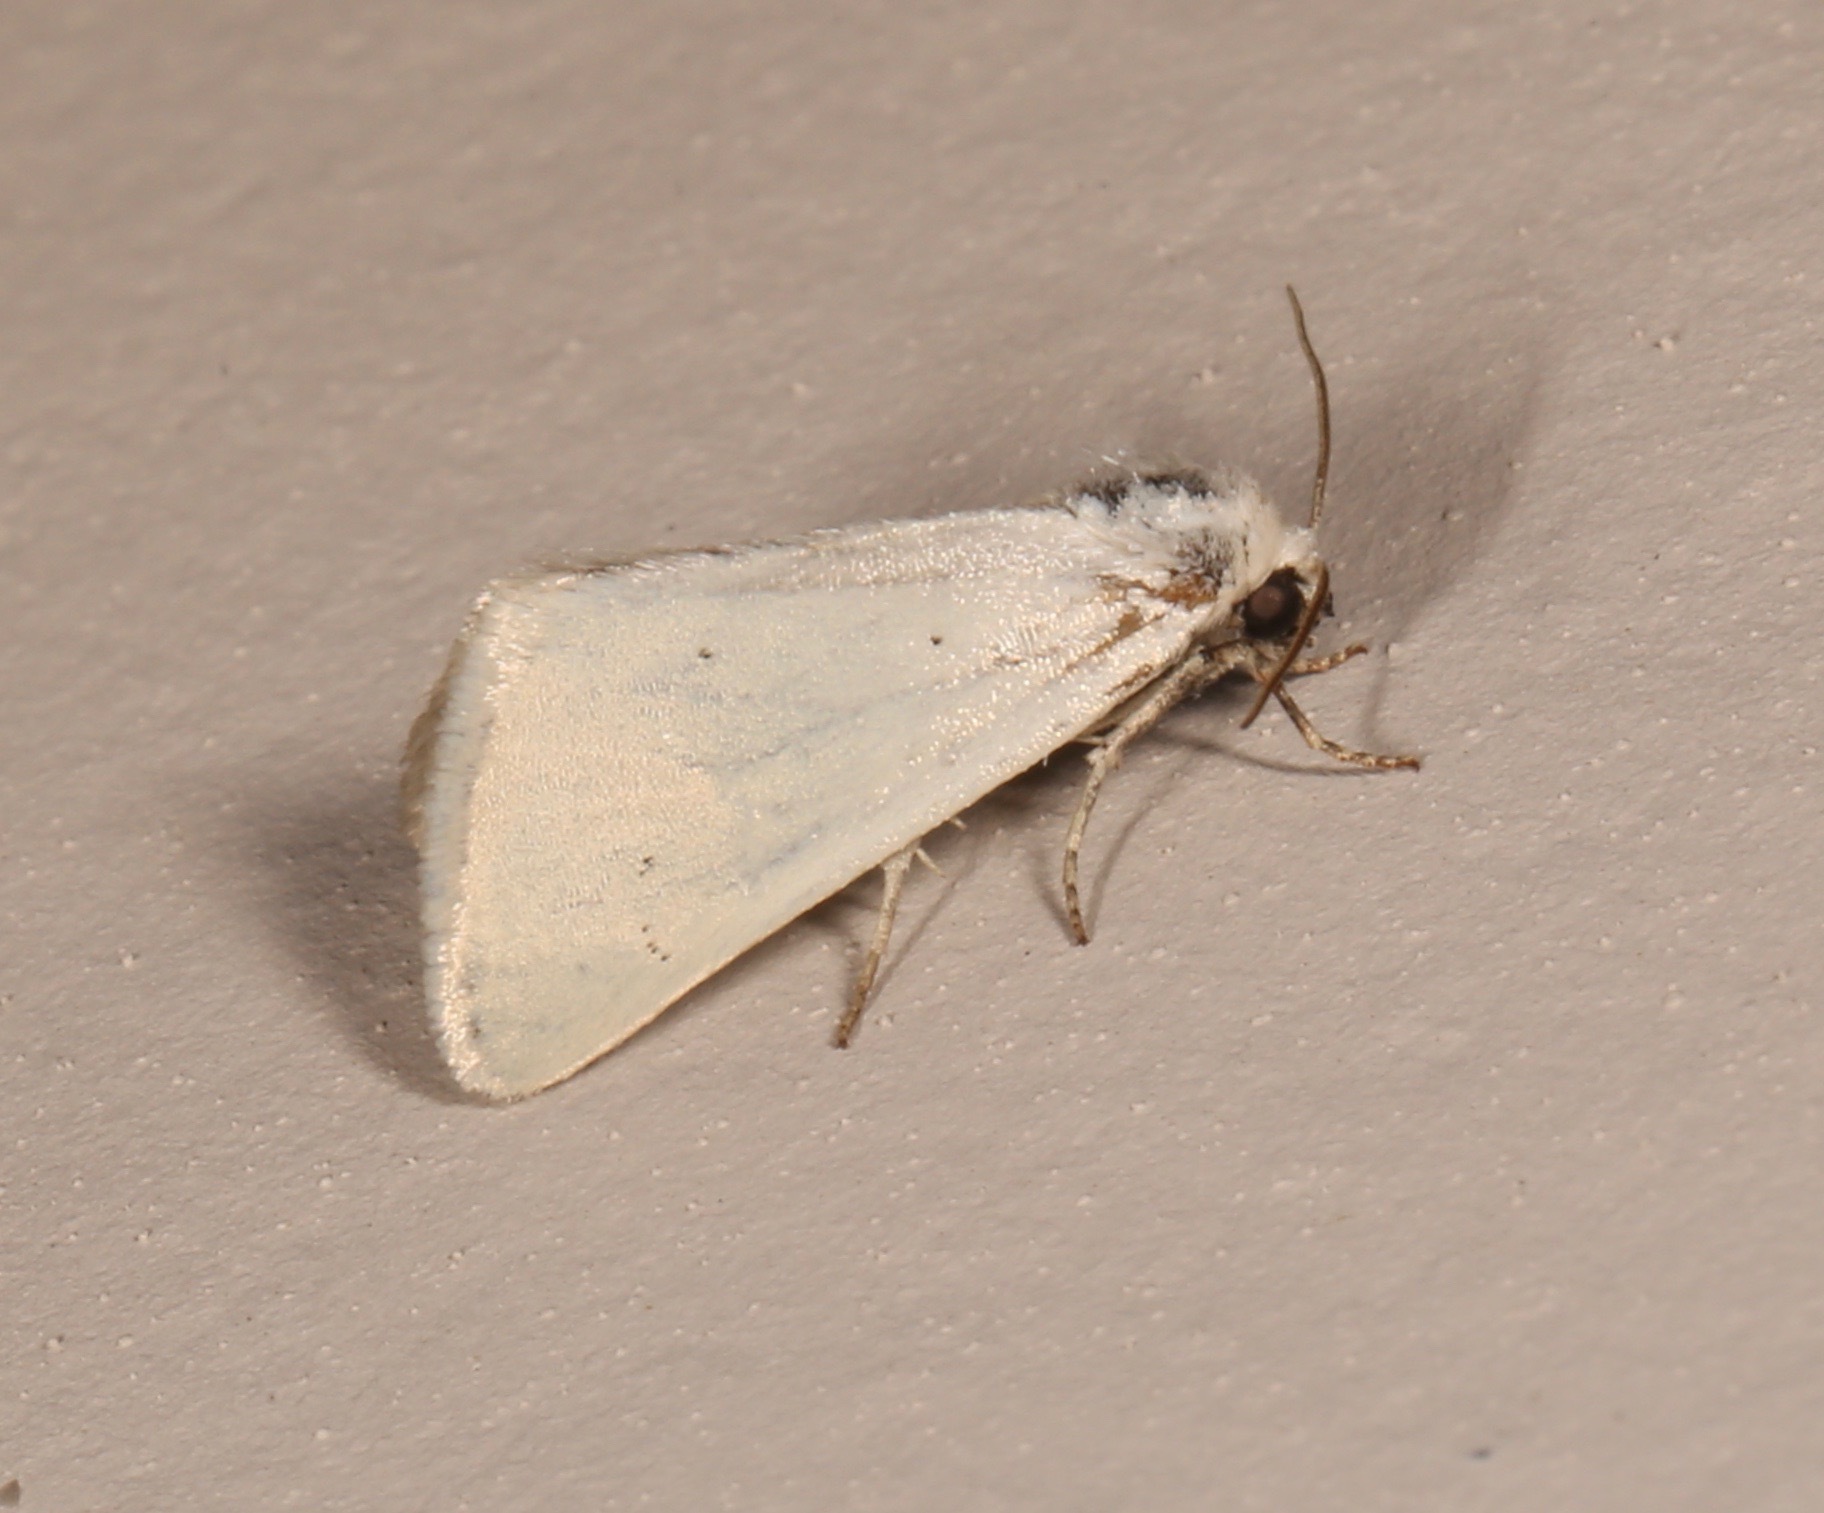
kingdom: Animalia
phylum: Arthropoda
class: Insecta
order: Lepidoptera
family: Noctuidae
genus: Grotella
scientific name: Grotella stretchi
